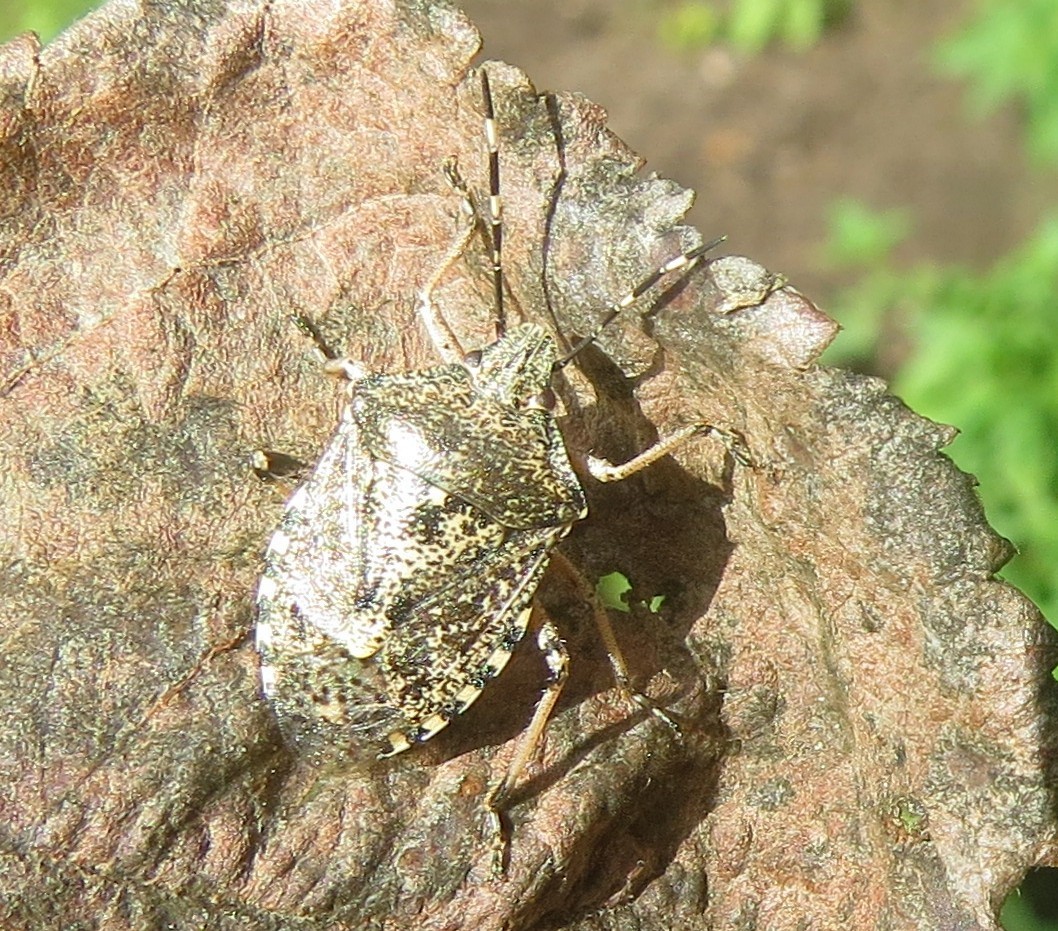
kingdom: Animalia
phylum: Arthropoda
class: Insecta
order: Hemiptera
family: Pentatomidae
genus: Rhaphigaster
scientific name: Rhaphigaster nebulosa
